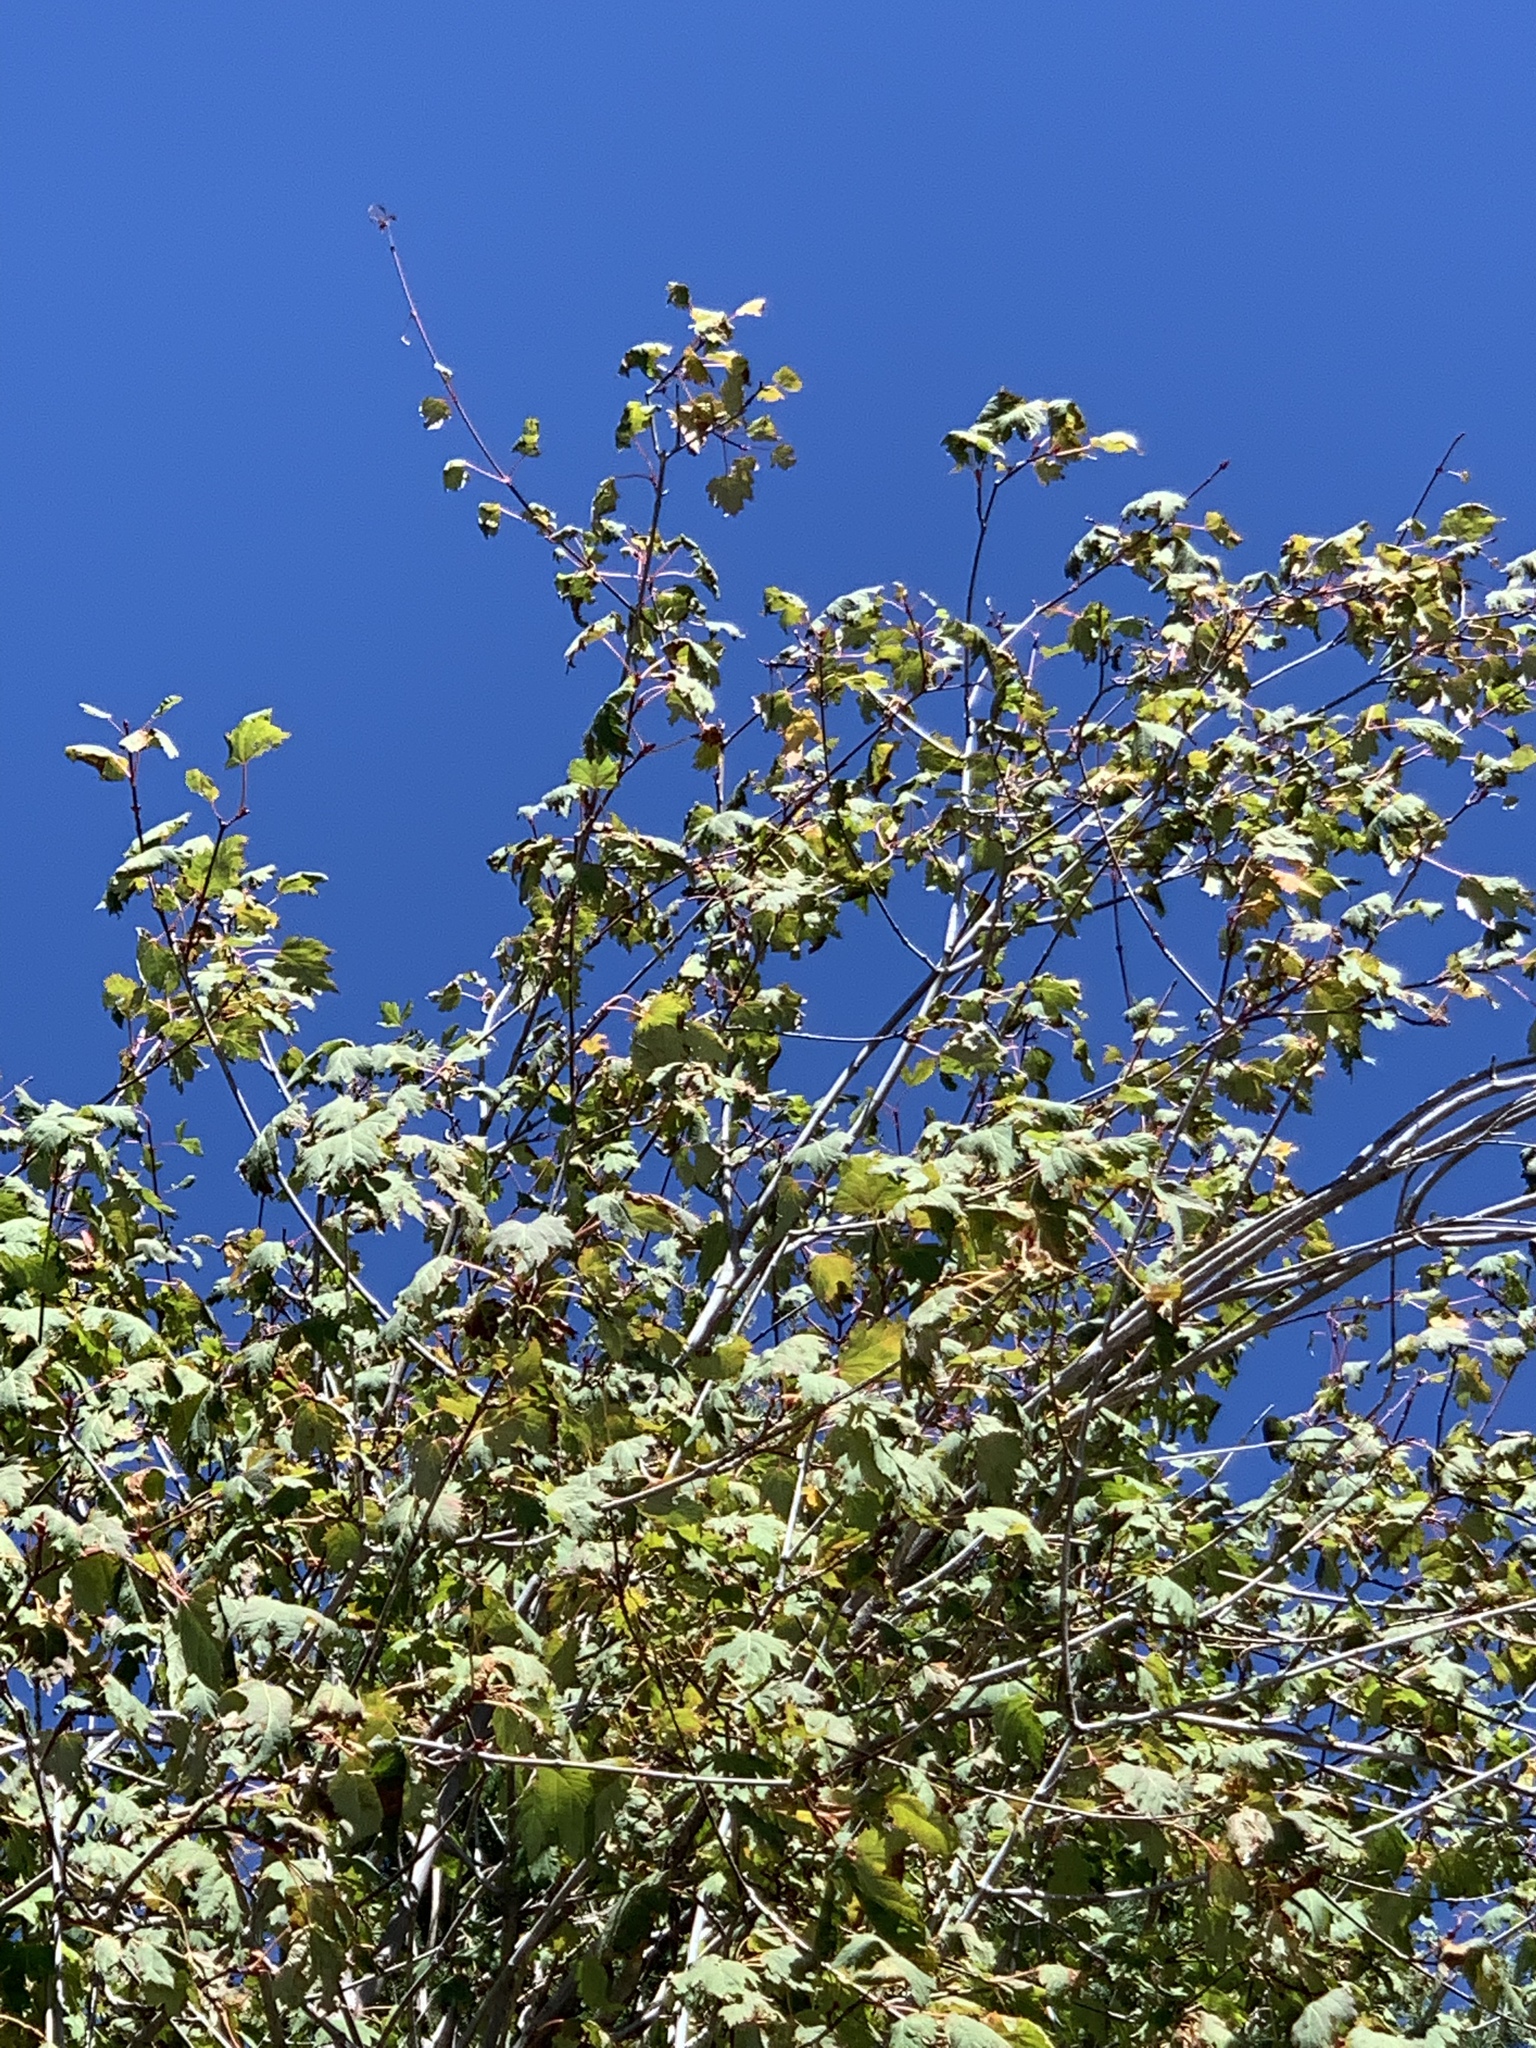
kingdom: Plantae
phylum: Tracheophyta
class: Magnoliopsida
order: Sapindales
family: Sapindaceae
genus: Acer
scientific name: Acer glabrum
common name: Rocky mountain maple
